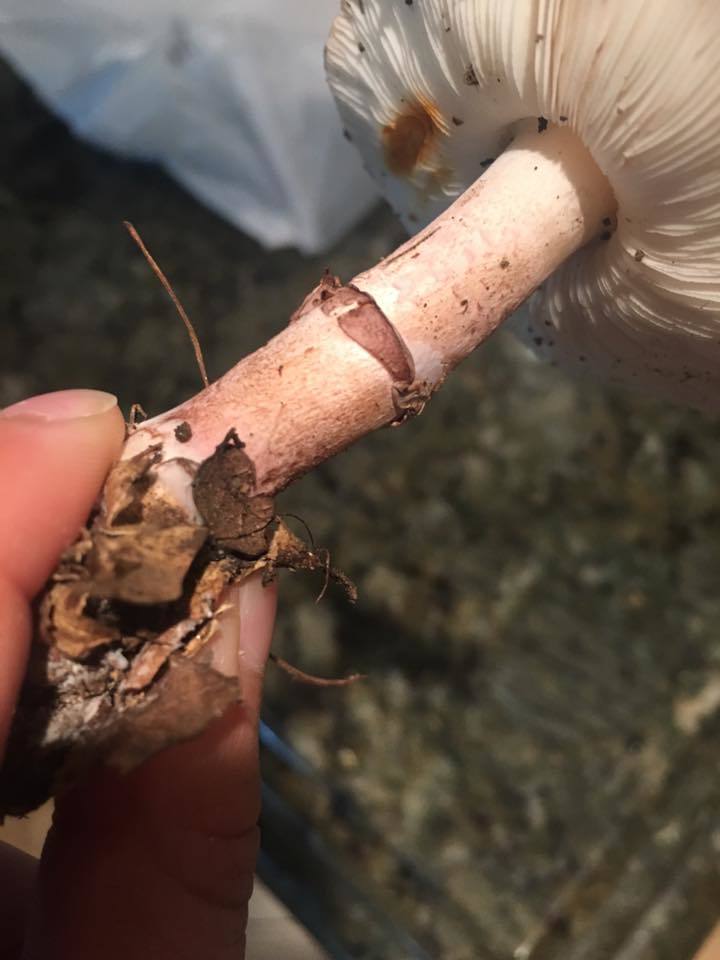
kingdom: Fungi
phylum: Basidiomycota
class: Agaricomycetes
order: Agaricales
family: Agaricaceae
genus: Lepiota
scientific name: Lepiota decorata
